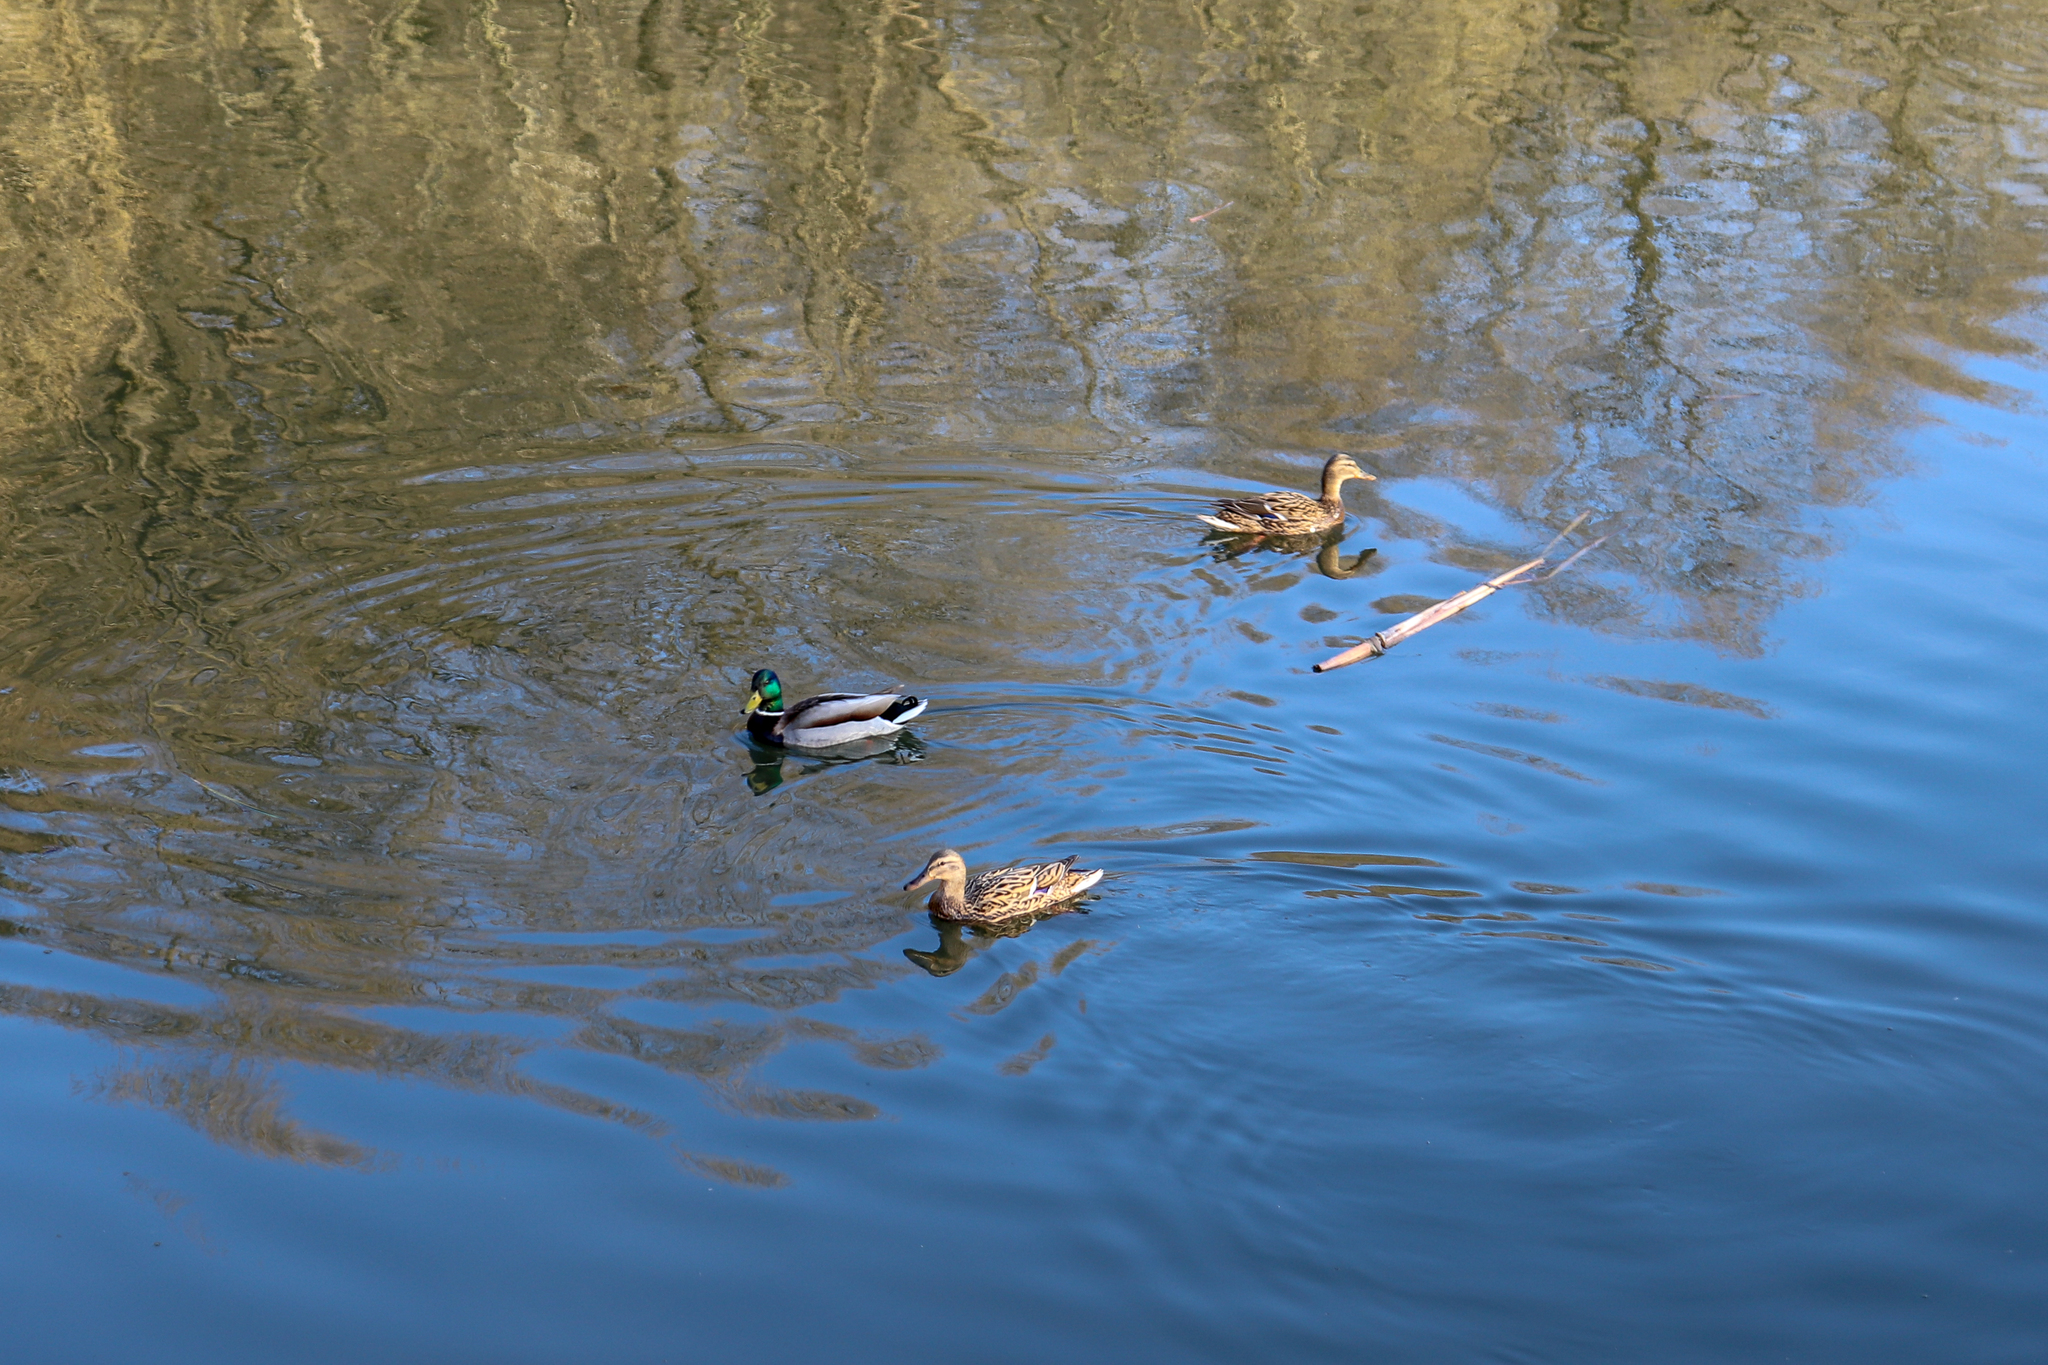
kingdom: Animalia
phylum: Chordata
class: Aves
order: Anseriformes
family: Anatidae
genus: Anas
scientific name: Anas platyrhynchos
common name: Mallard
